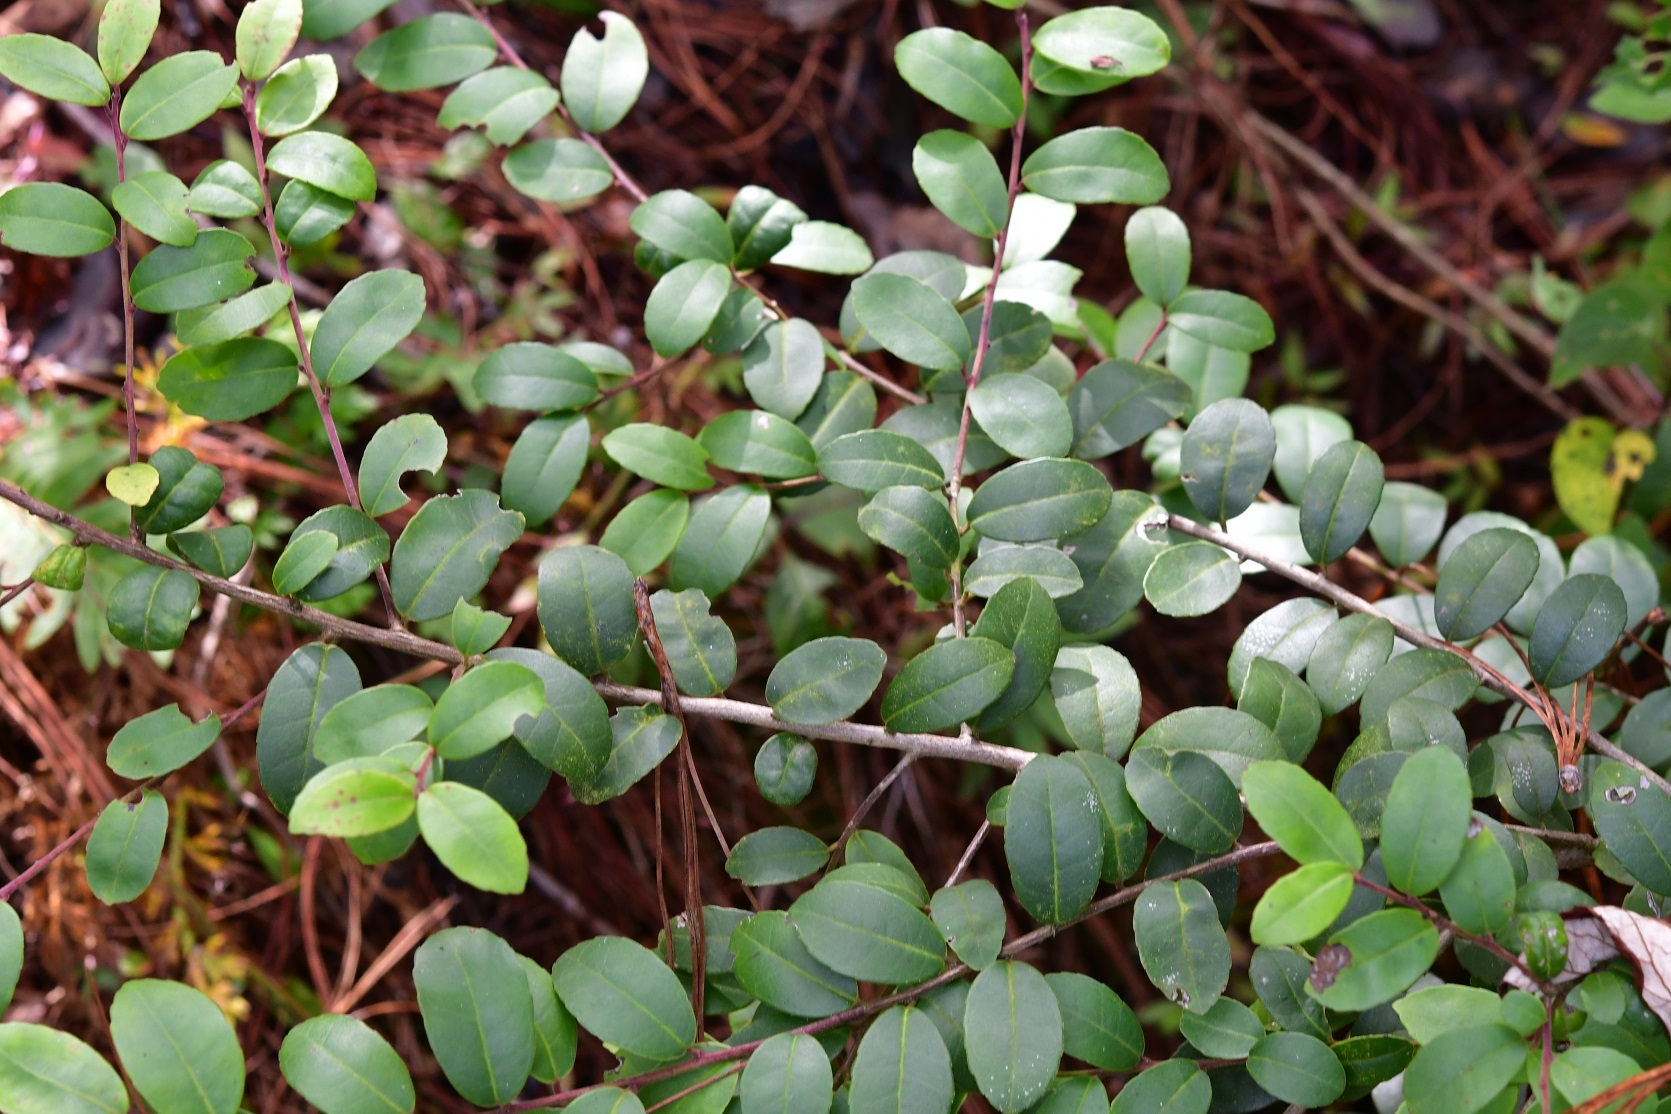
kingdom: Plantae
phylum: Tracheophyta
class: Magnoliopsida
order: Aquifoliales
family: Aquifoliaceae
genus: Ilex
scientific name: Ilex vomitoria
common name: Yaupon holly
